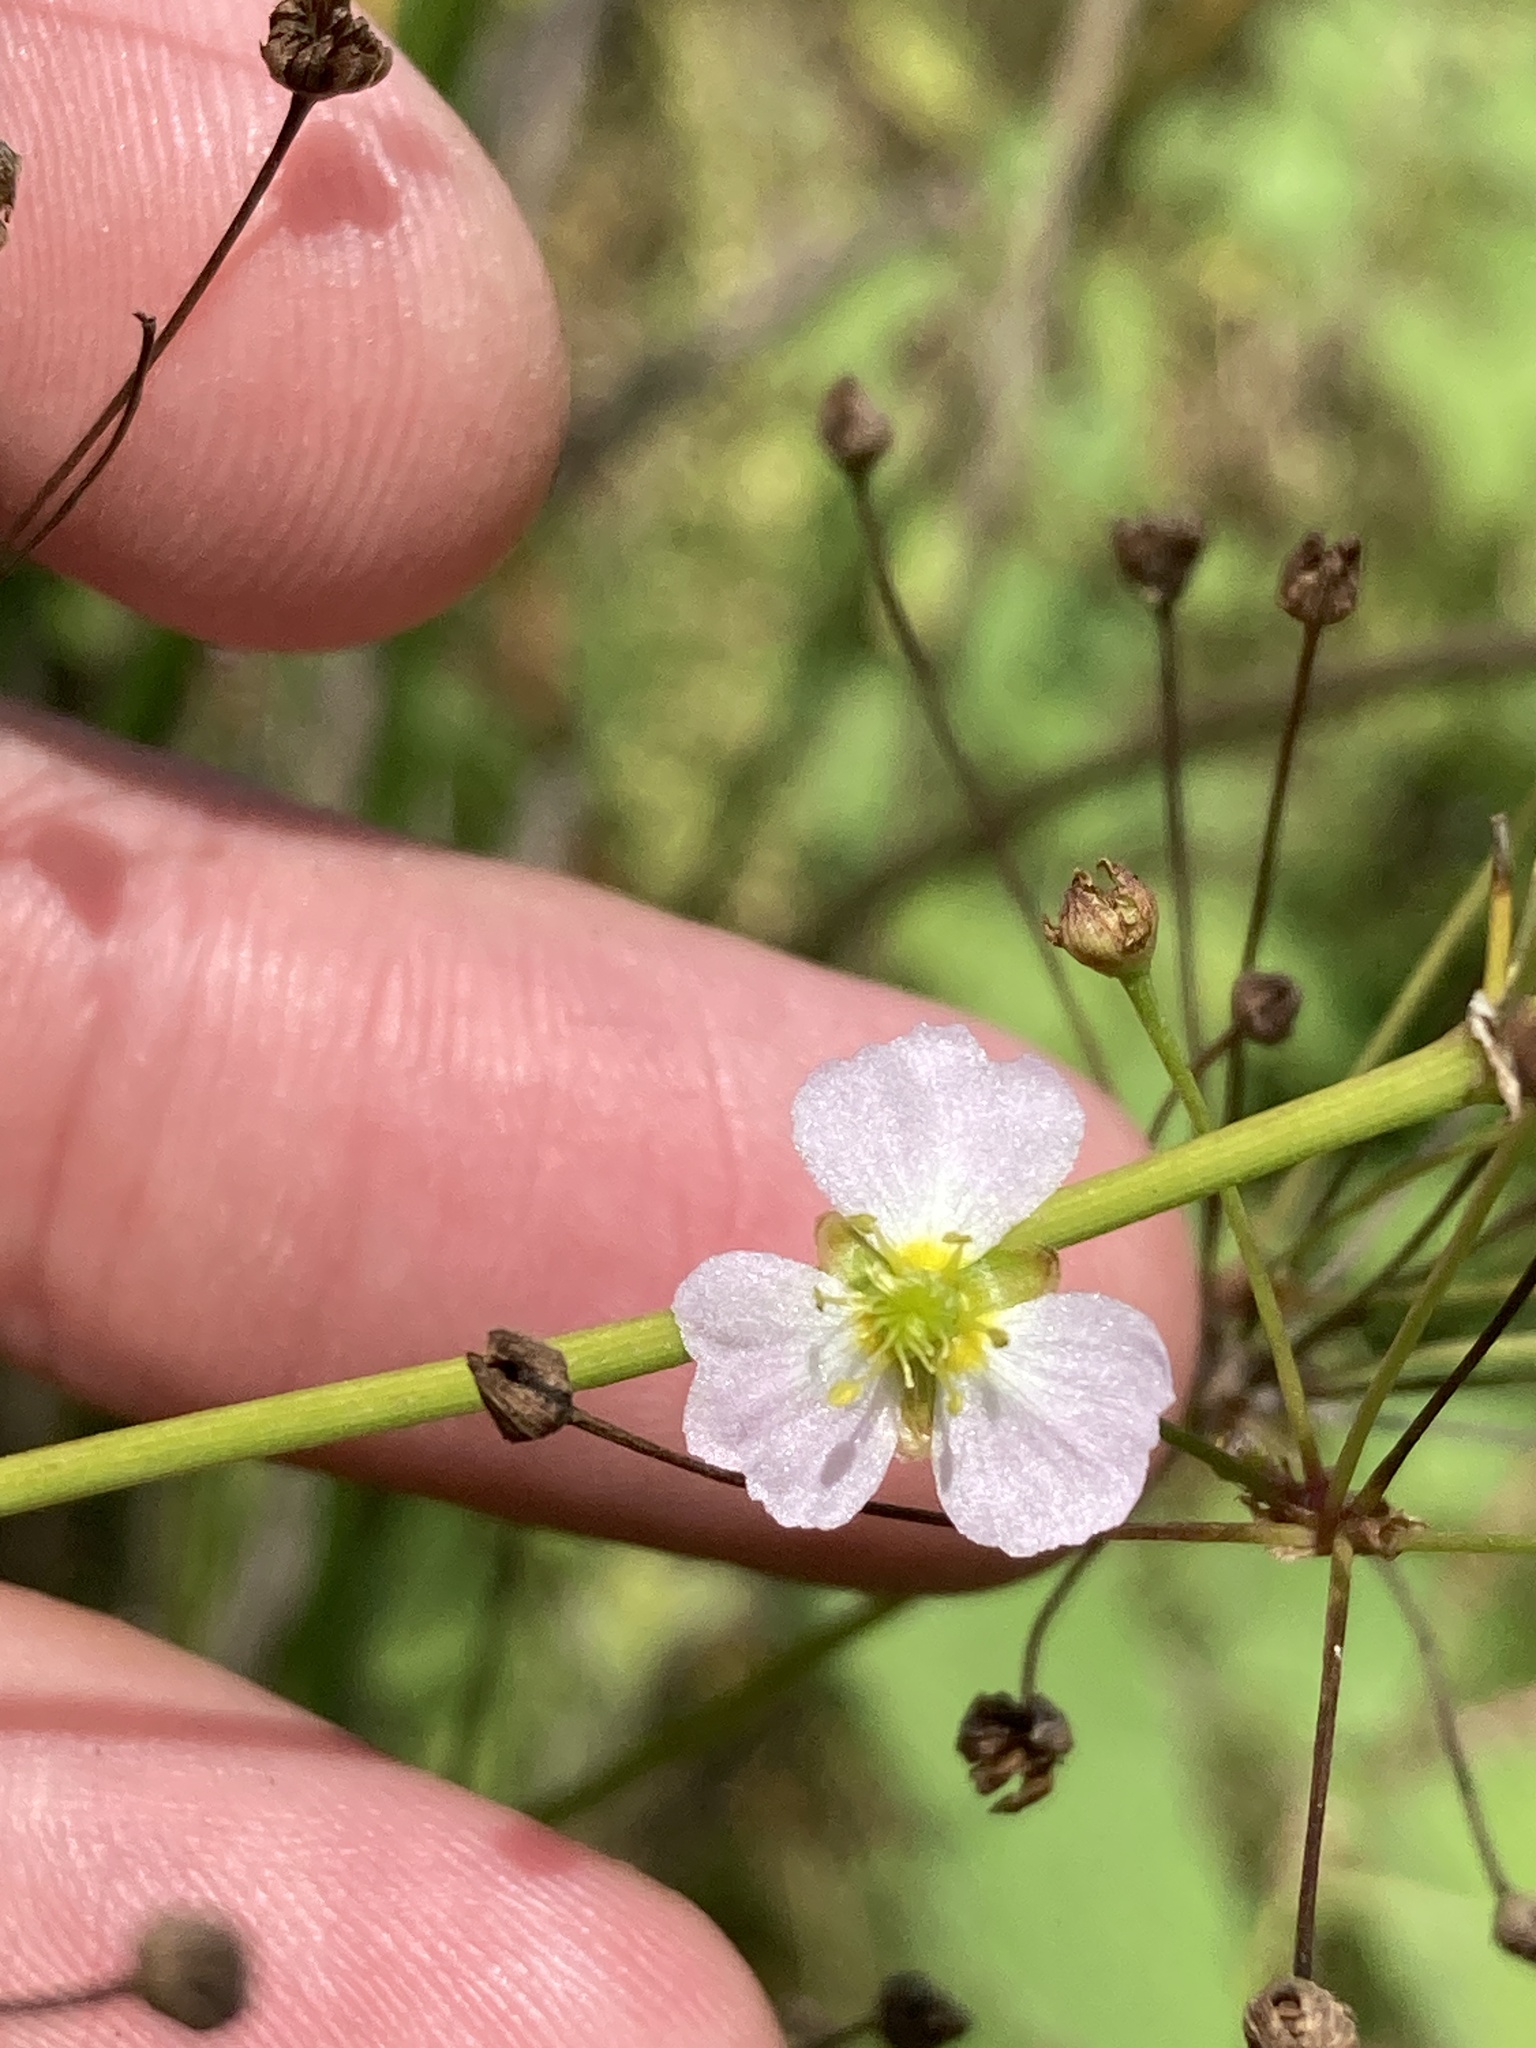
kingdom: Plantae
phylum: Tracheophyta
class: Liliopsida
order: Alismatales
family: Alismataceae
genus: Alisma
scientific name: Alisma plantago-aquatica
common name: Water-plantain
